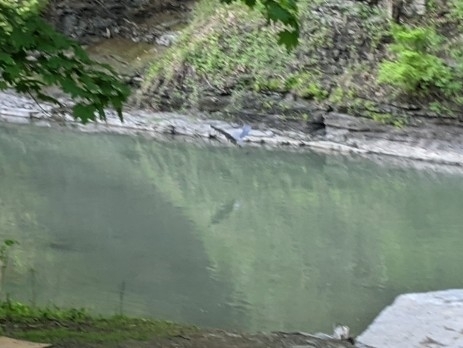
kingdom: Animalia
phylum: Chordata
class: Aves
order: Pelecaniformes
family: Ardeidae
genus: Ardea
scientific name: Ardea herodias
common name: Great blue heron
